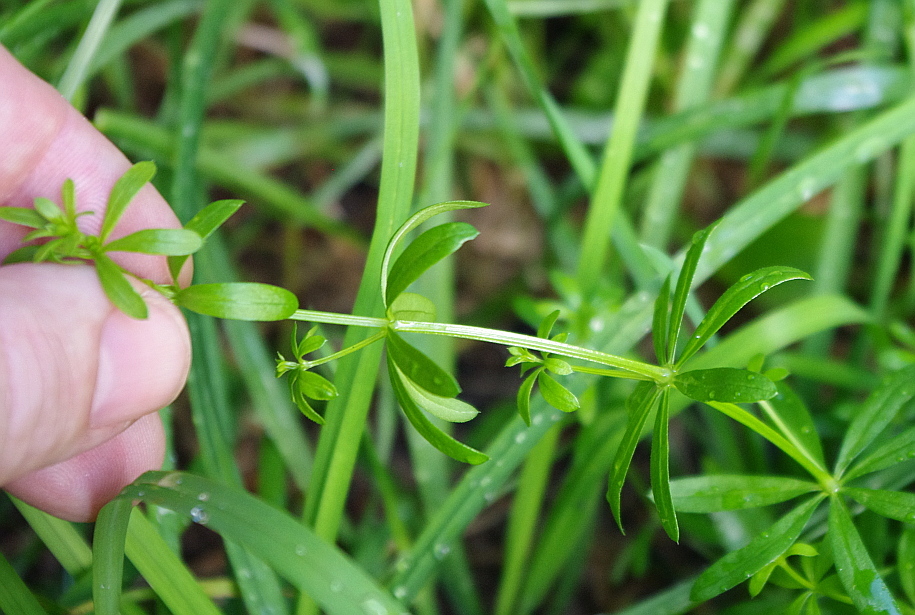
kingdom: Plantae
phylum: Tracheophyta
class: Magnoliopsida
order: Gentianales
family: Rubiaceae
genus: Galium
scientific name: Galium mollugo
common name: Hedge bedstraw
